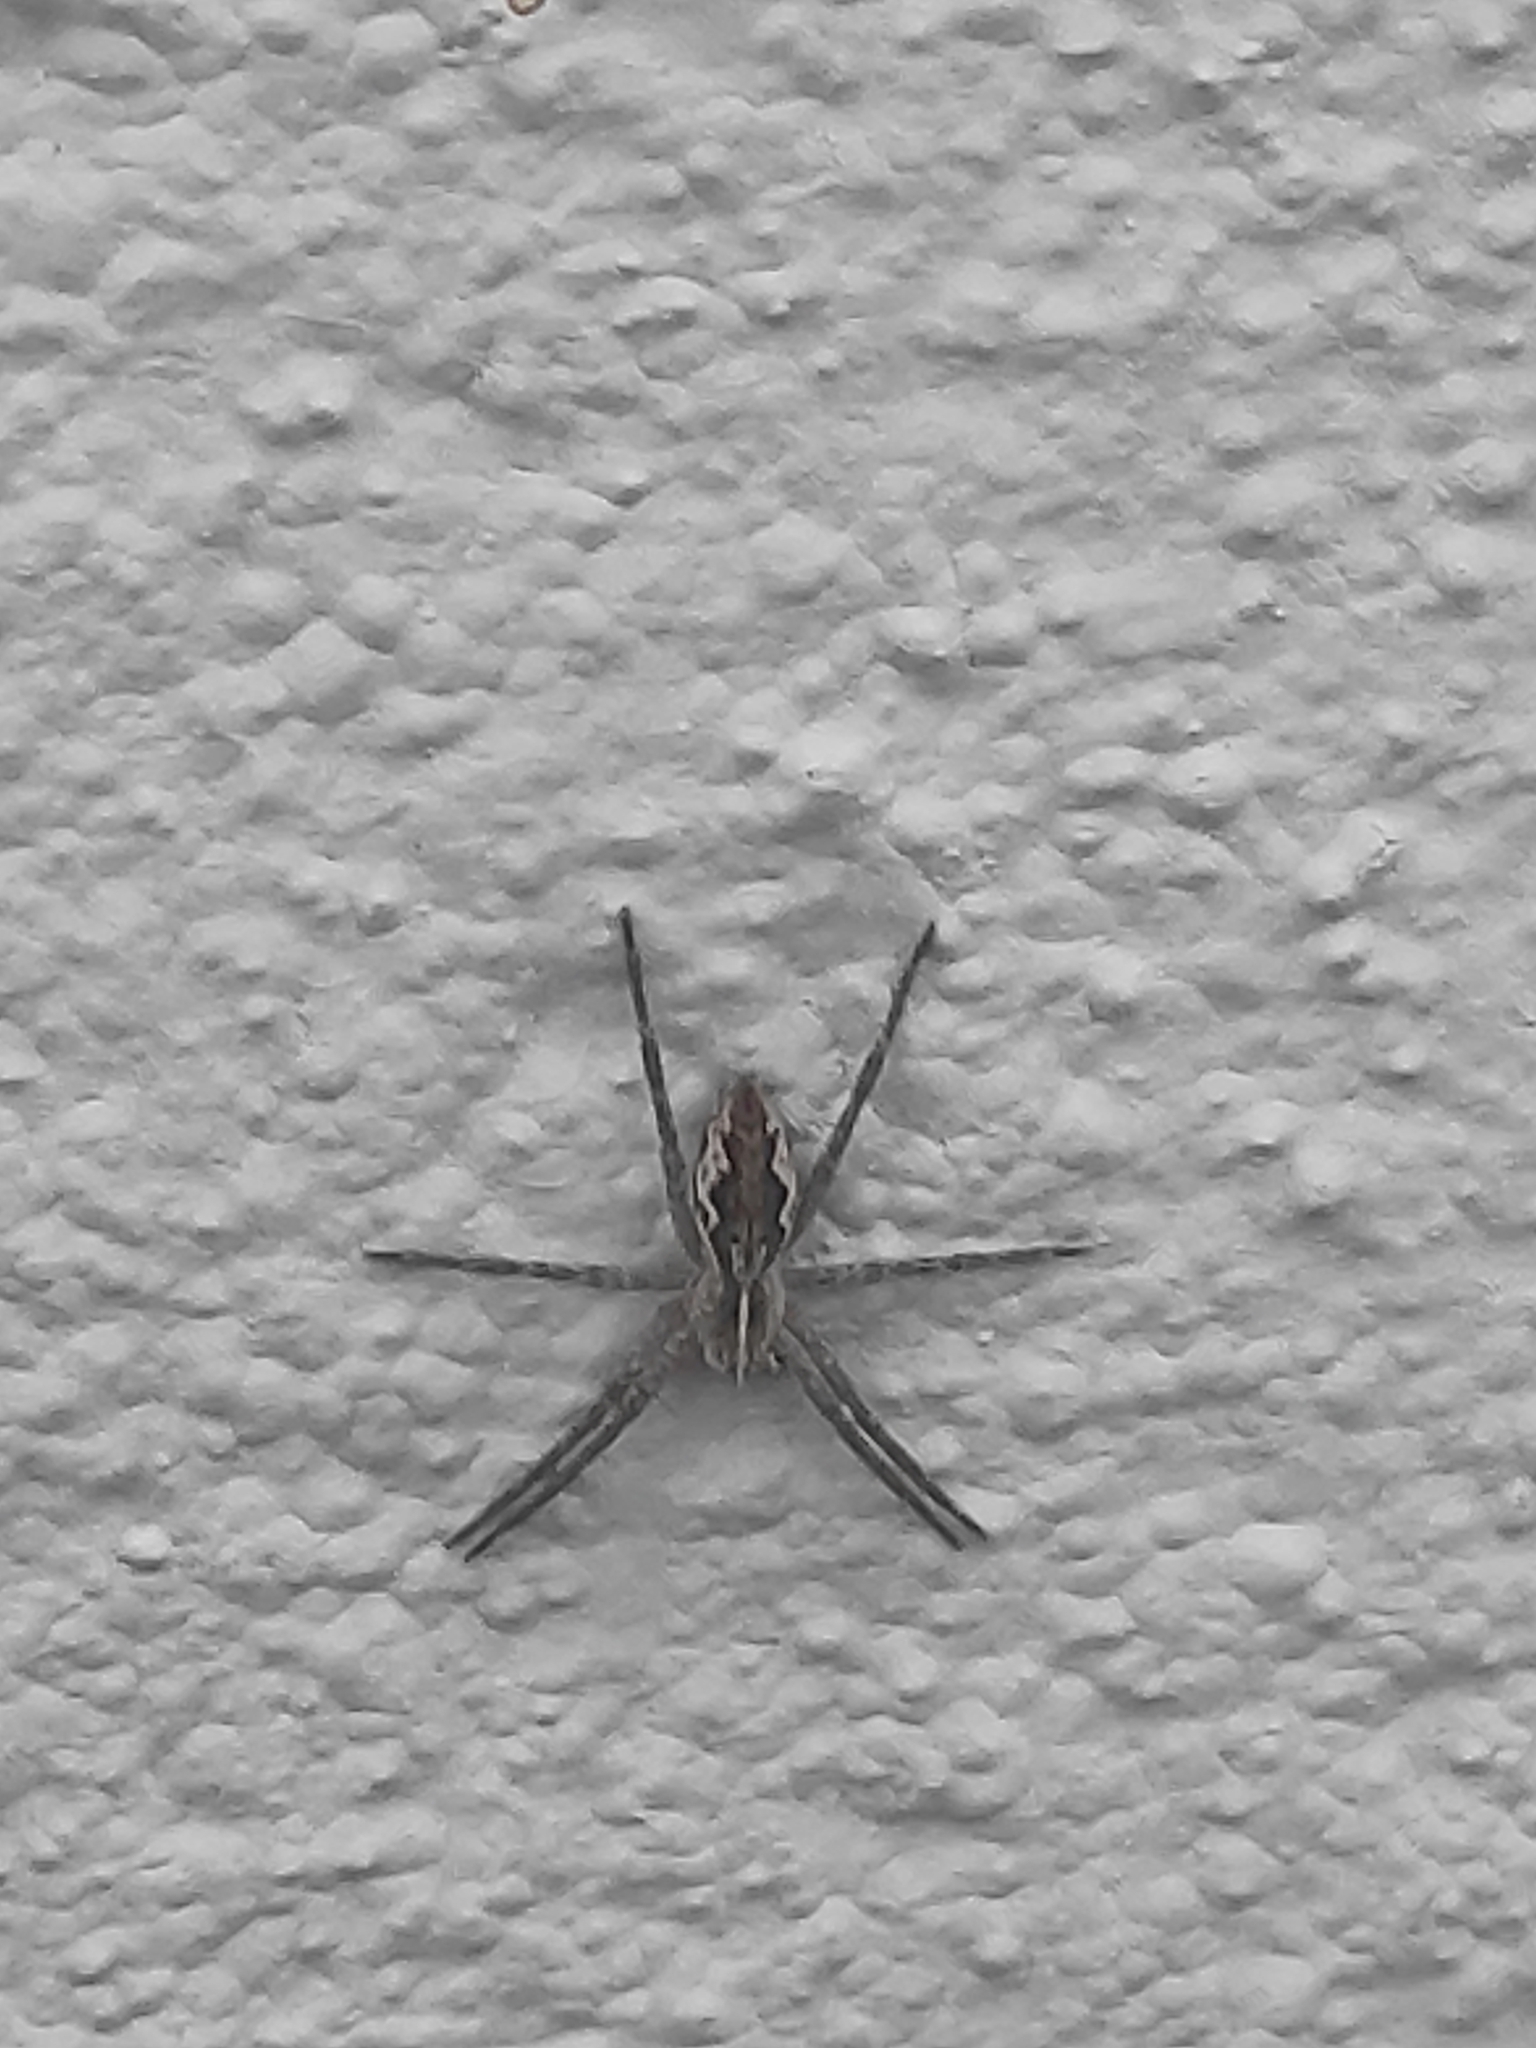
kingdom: Animalia
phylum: Arthropoda
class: Arachnida
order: Araneae
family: Pisauridae
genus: Pisaura
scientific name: Pisaura mirabilis
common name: Tent spider
